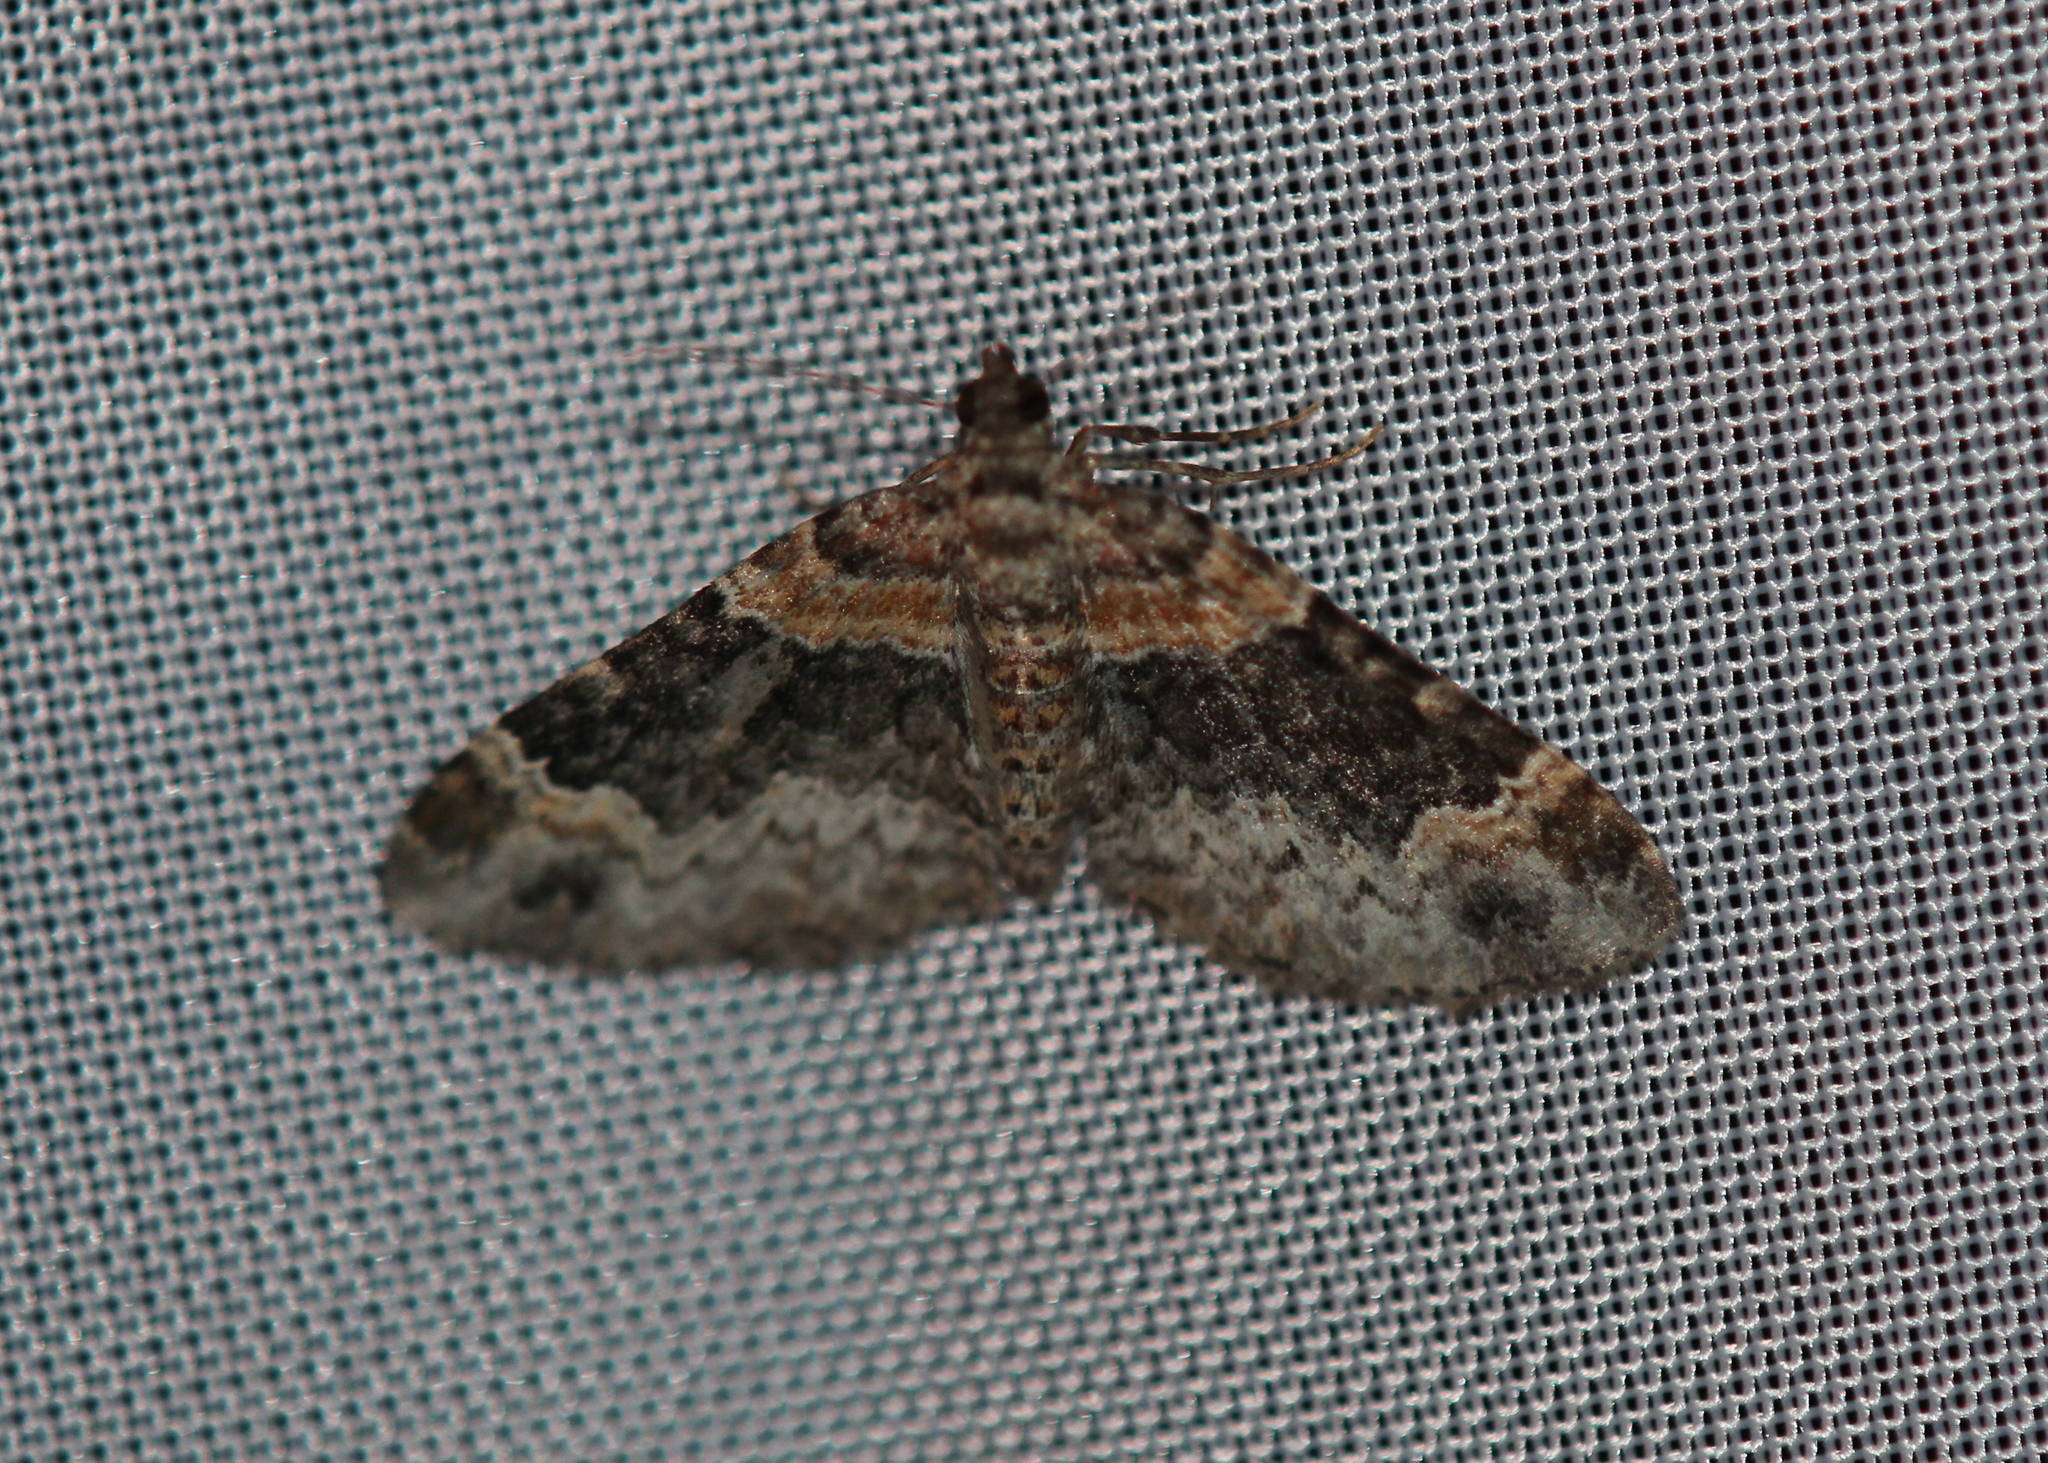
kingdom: Animalia
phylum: Arthropoda
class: Insecta
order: Lepidoptera
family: Geometridae
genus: Xanthorhoe
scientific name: Xanthorhoe ferrugata
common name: Dark-barred twin-spot carpet
